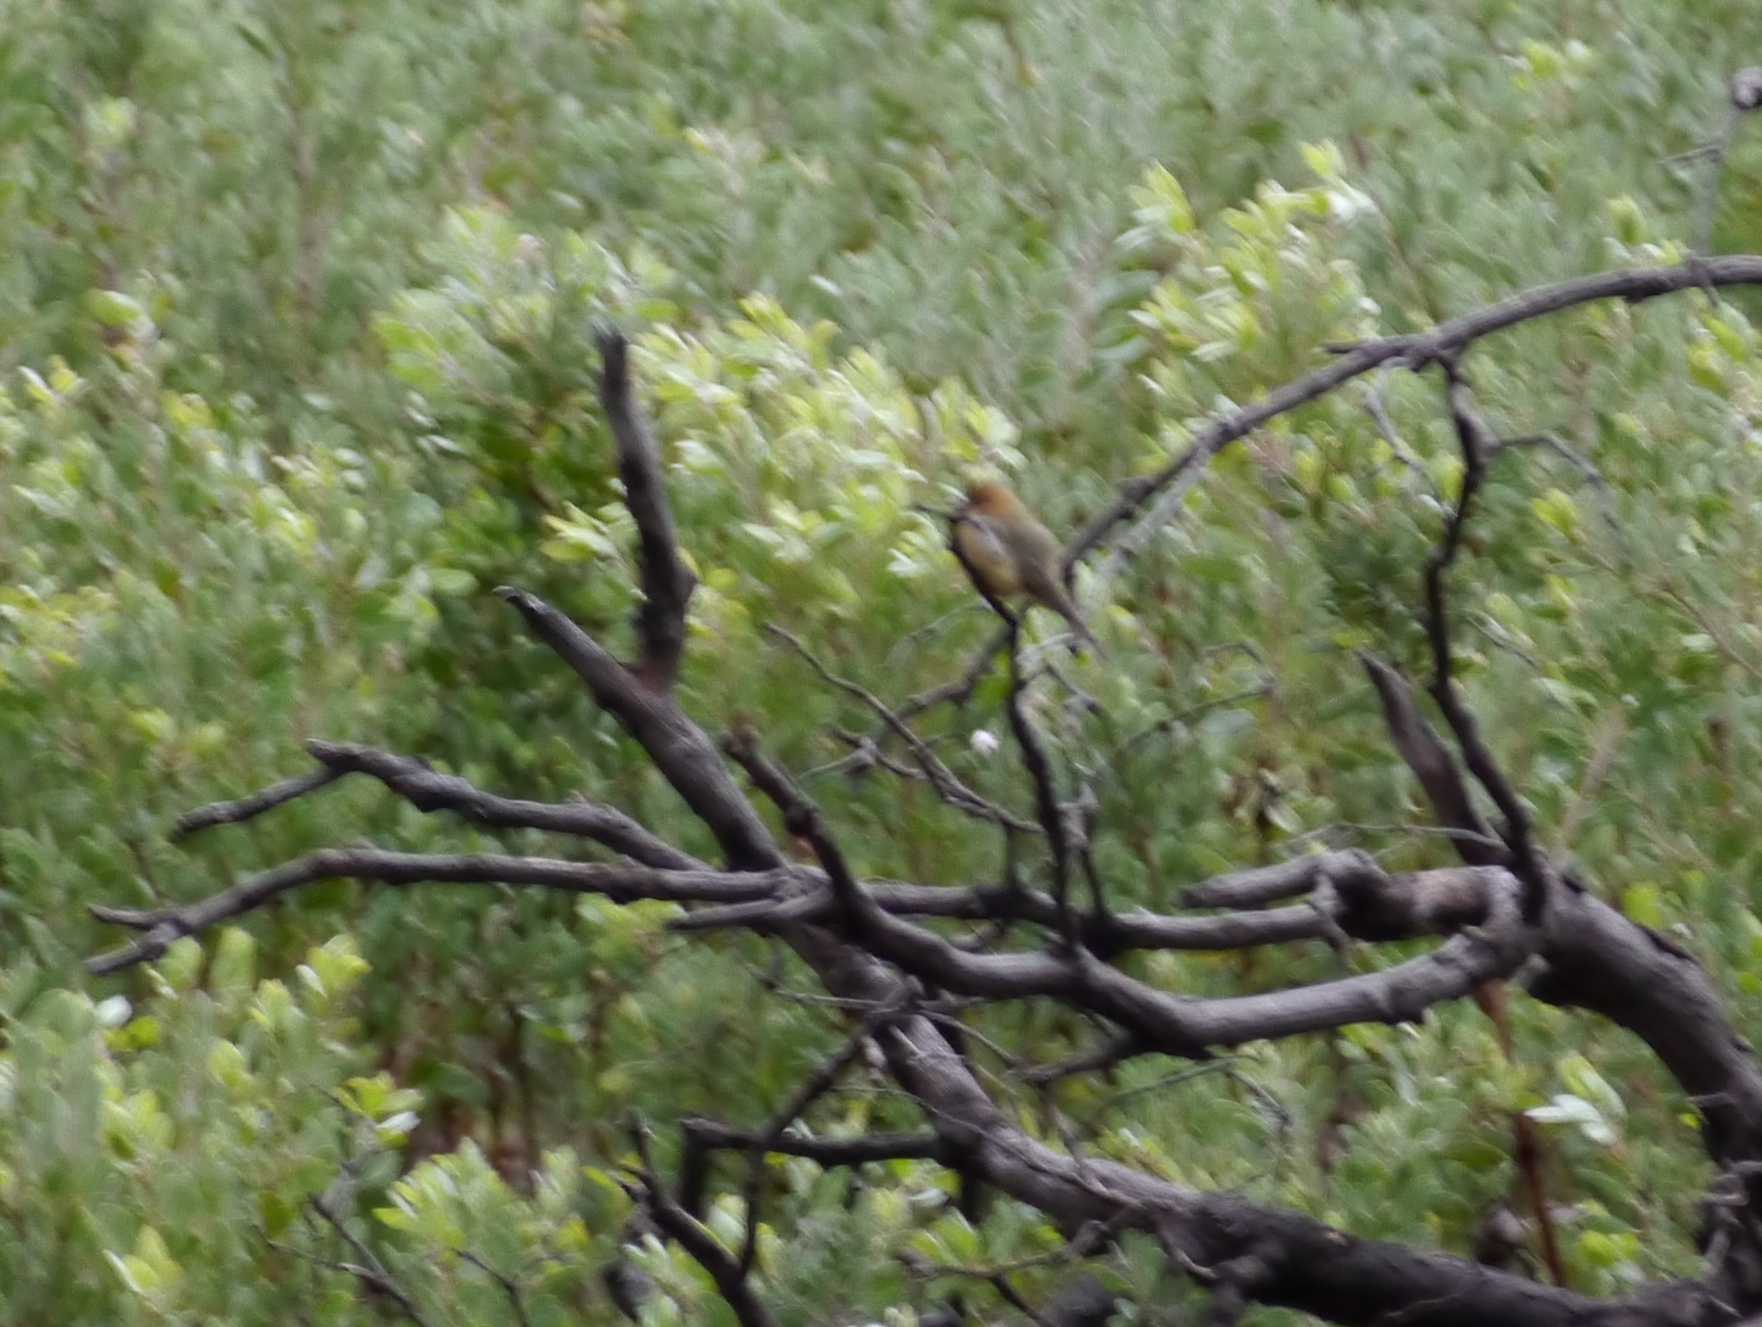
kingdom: Animalia
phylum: Chordata
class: Aves
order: Passeriformes
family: Tyrannidae
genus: Mitrephanes
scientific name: Mitrephanes phaeocercus
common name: Northern tufted flycatcher
